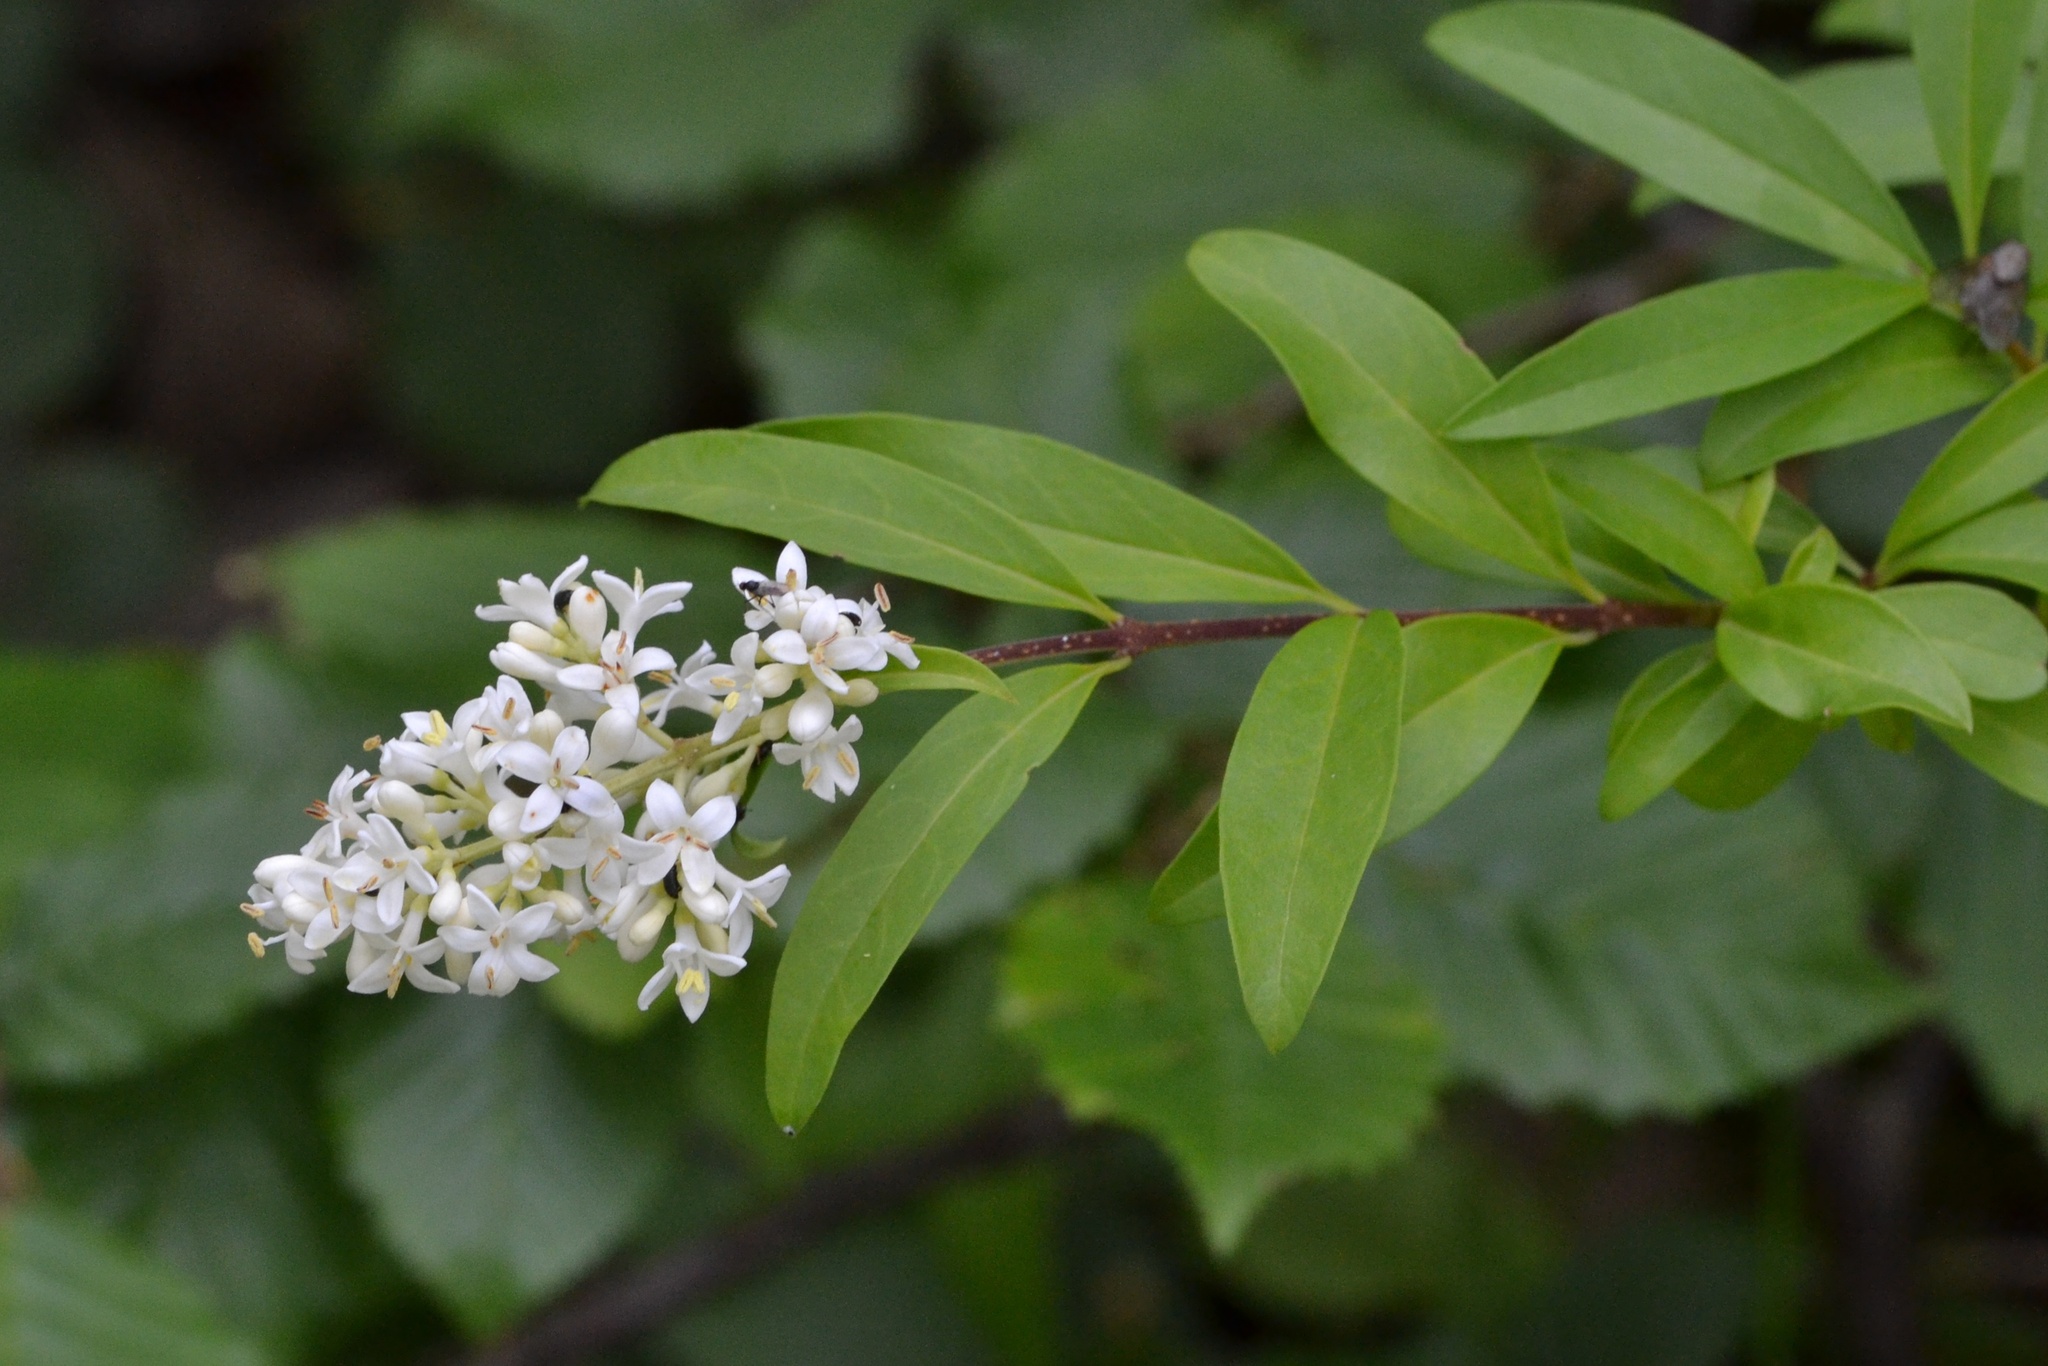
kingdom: Plantae
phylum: Tracheophyta
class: Magnoliopsida
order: Lamiales
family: Oleaceae
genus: Ligustrum
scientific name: Ligustrum vulgare
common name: Wild privet
